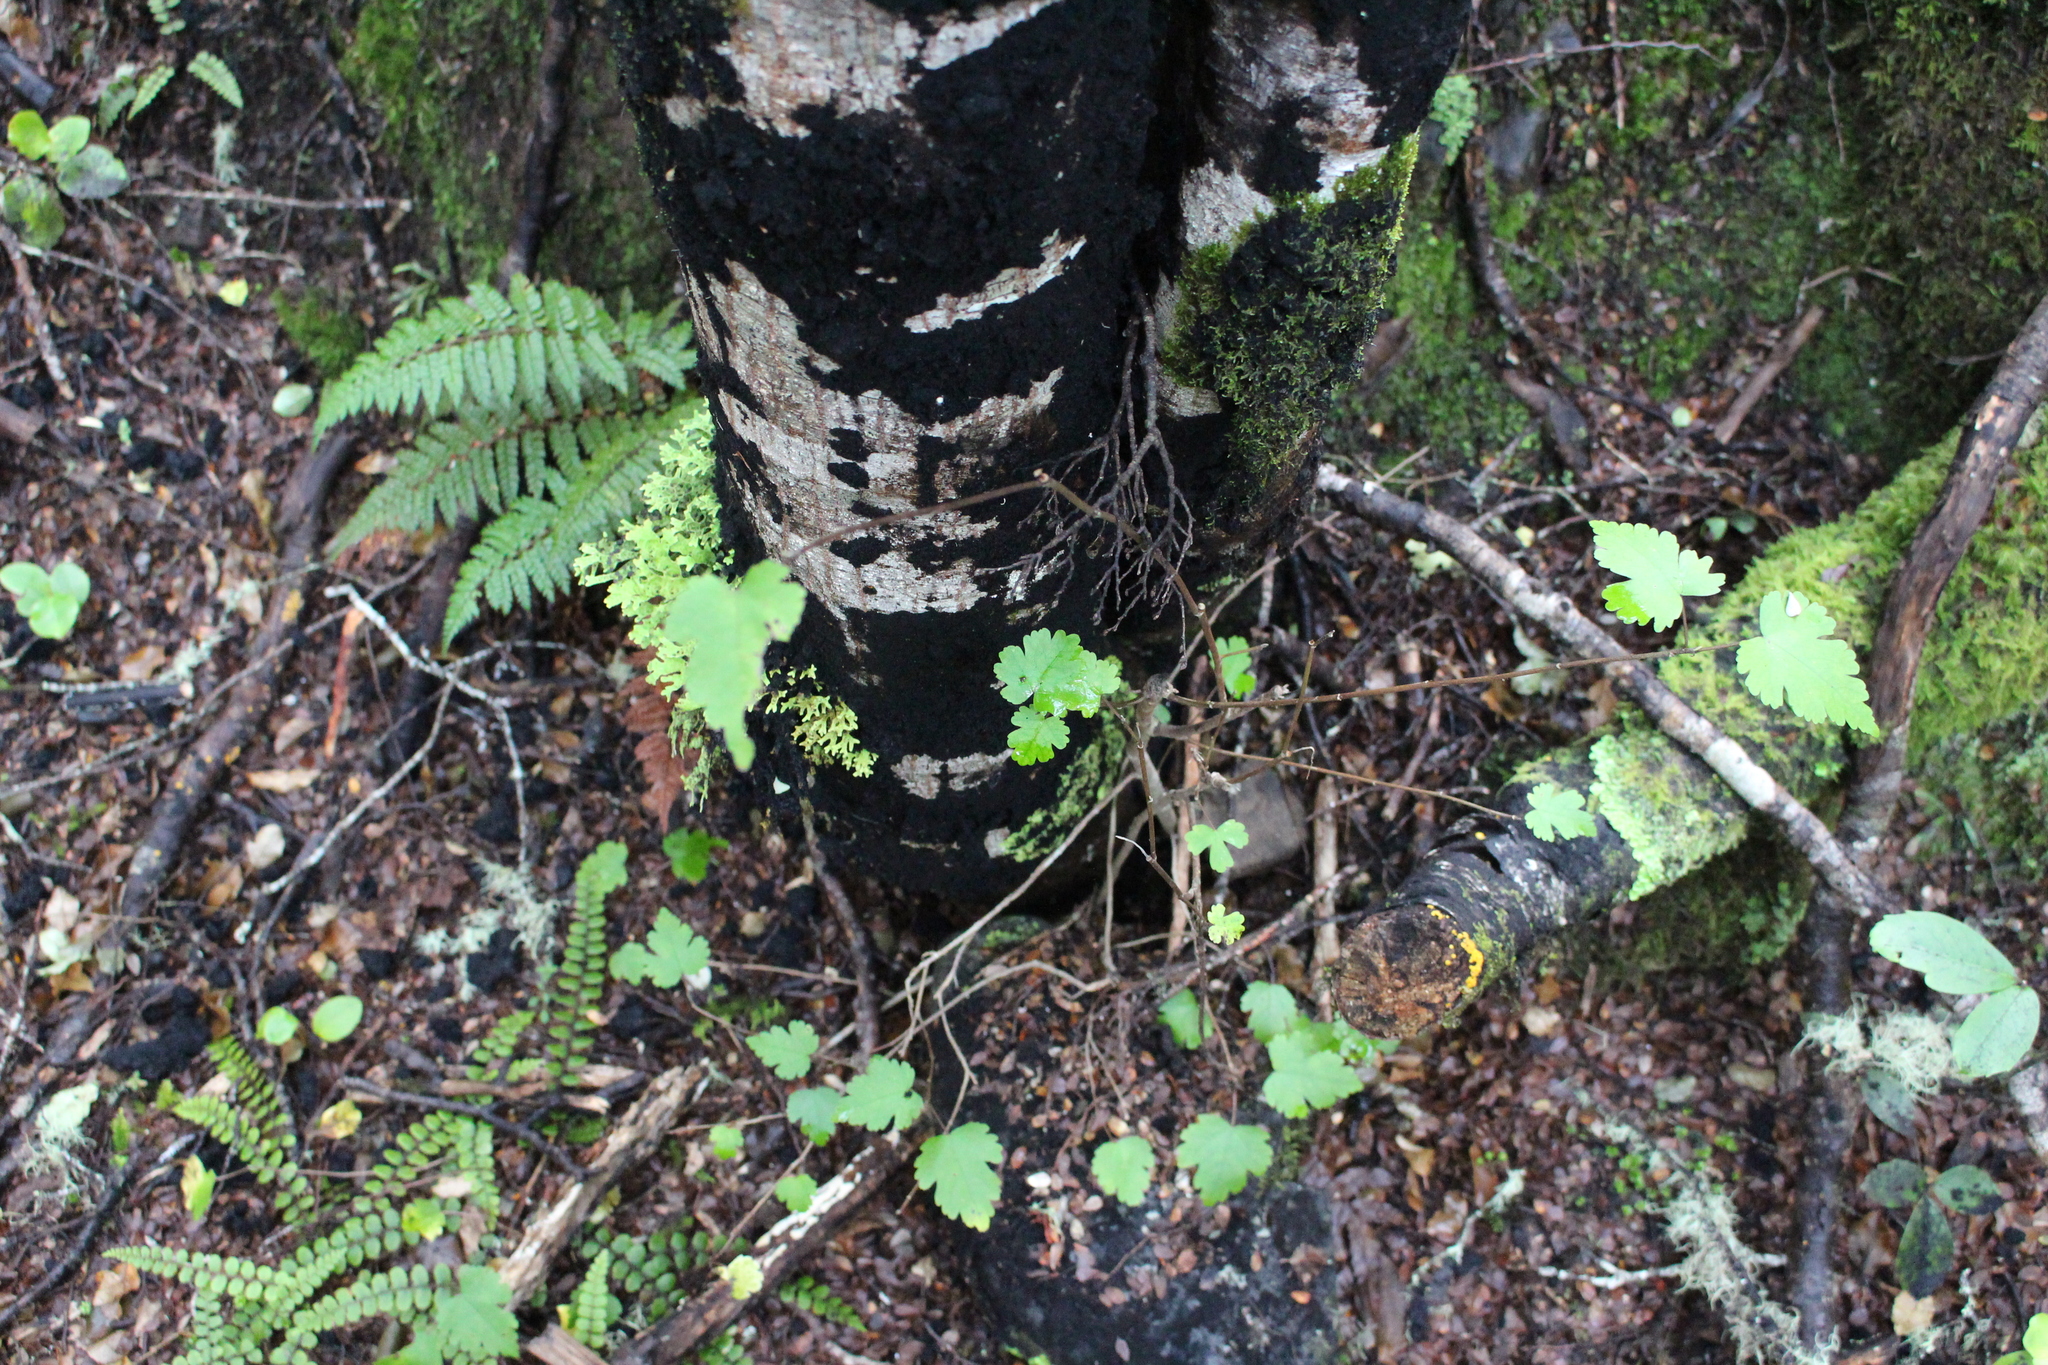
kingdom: Plantae
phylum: Tracheophyta
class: Magnoliopsida
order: Malvales
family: Malvaceae
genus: Hoheria
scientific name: Hoheria lyallii
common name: Lacebark
